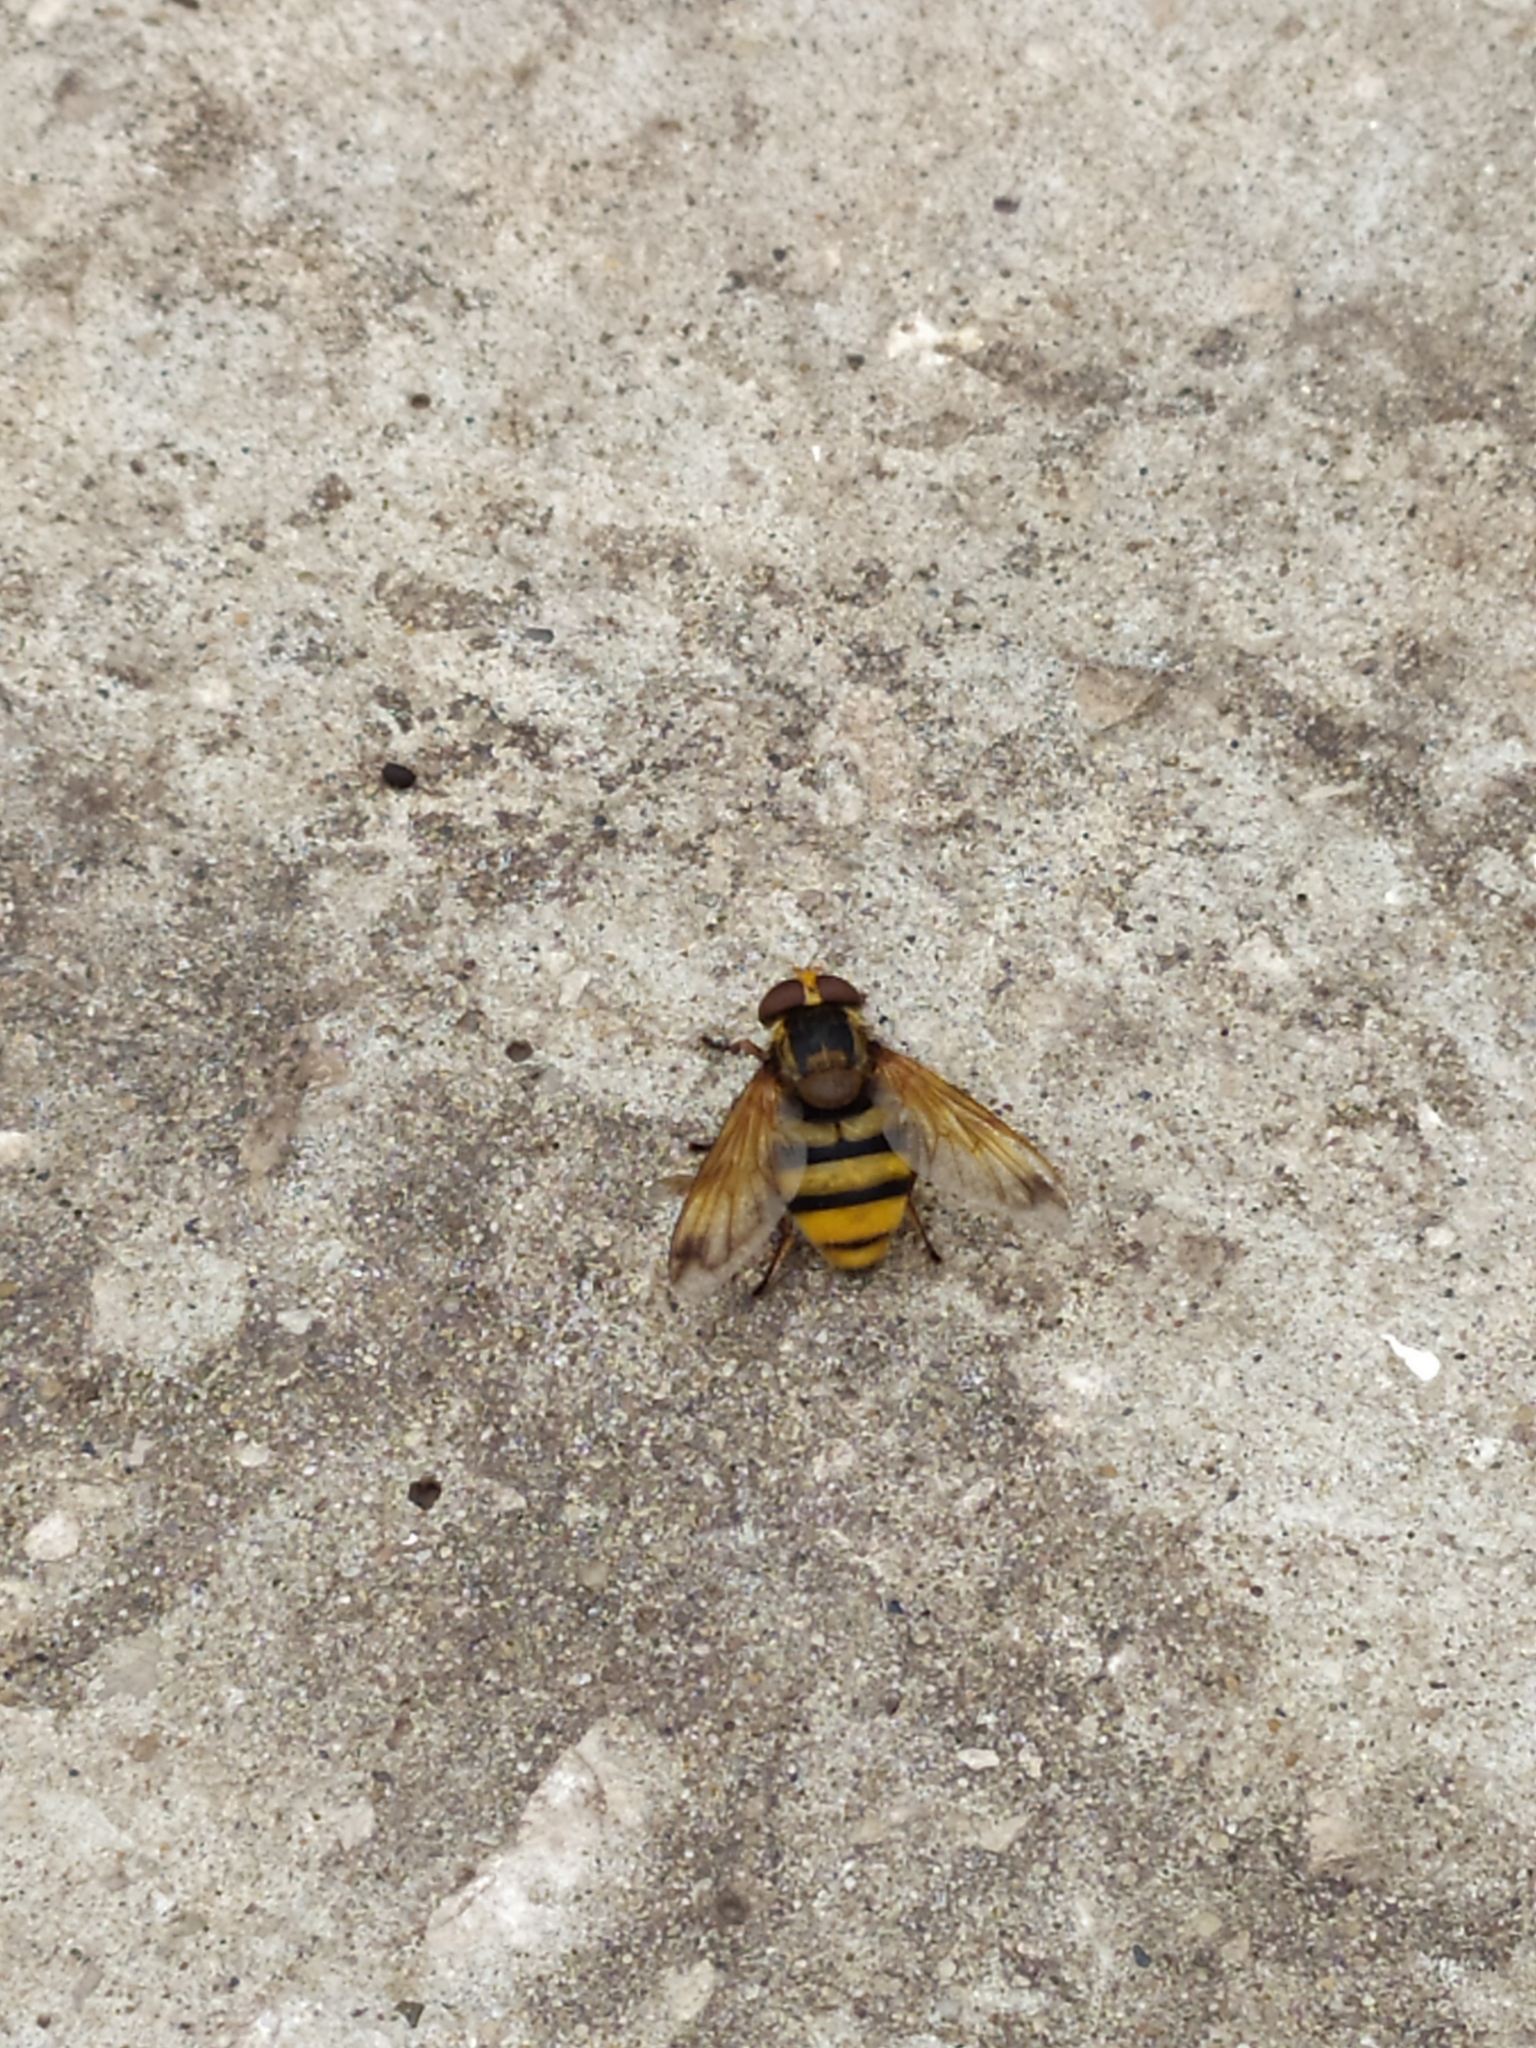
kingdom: Animalia
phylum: Arthropoda
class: Insecta
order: Diptera
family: Syrphidae
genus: Volucella
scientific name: Volucella inanis
